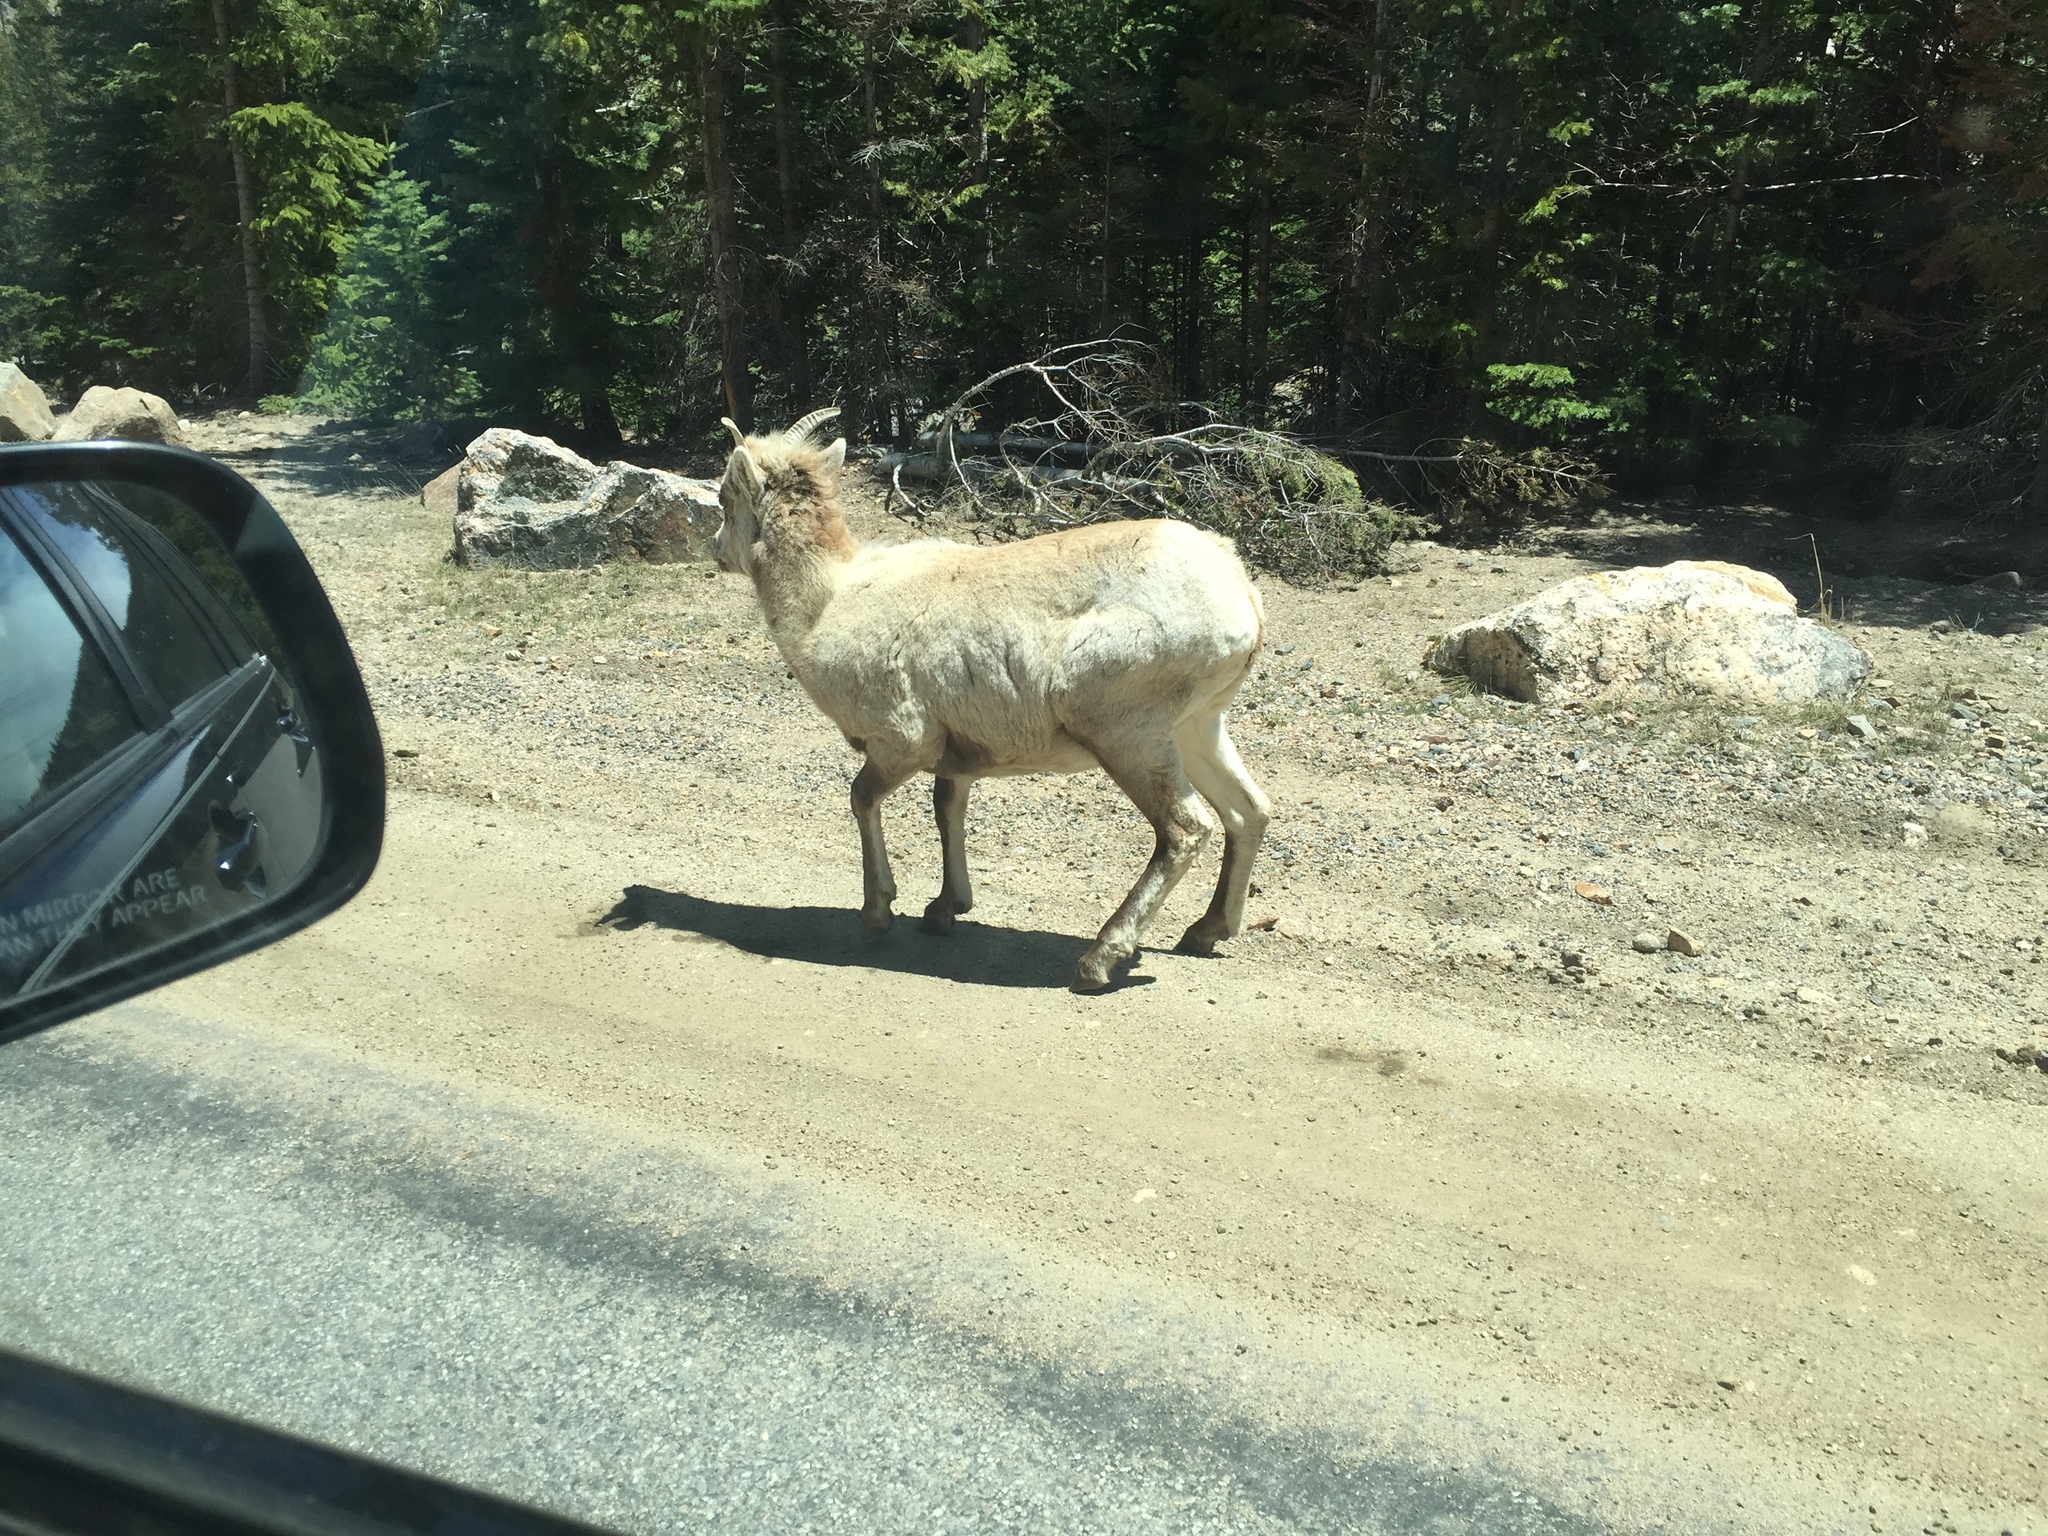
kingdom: Animalia
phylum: Chordata
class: Mammalia
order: Artiodactyla
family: Bovidae
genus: Ovis
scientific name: Ovis canadensis
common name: Bighorn sheep
